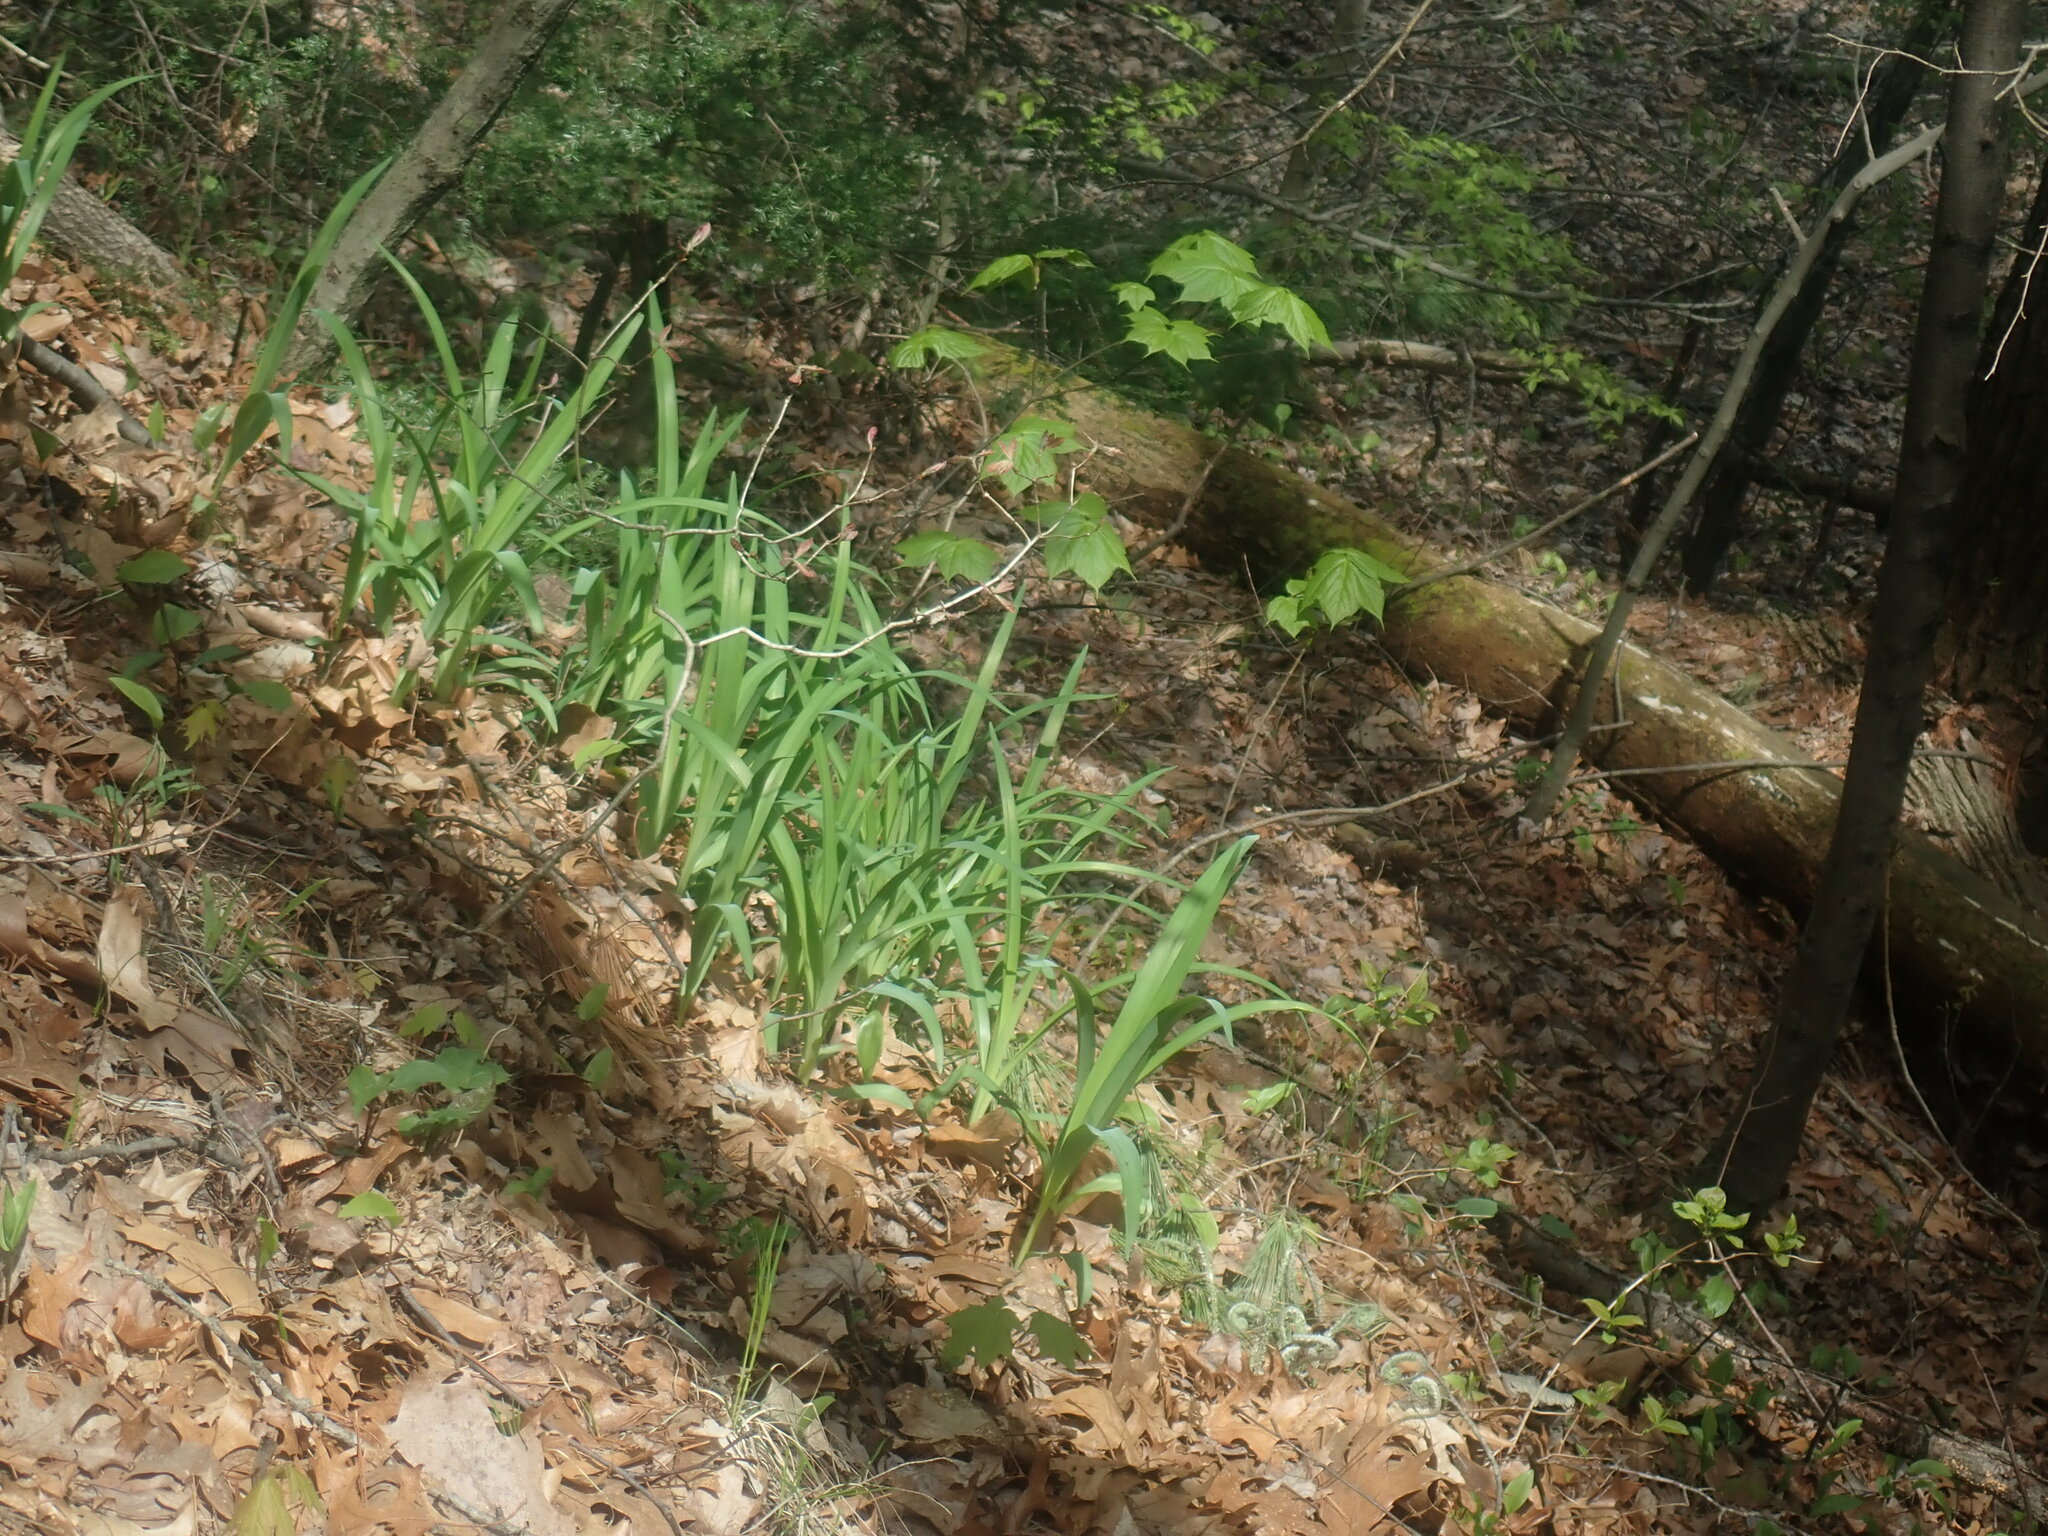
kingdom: Plantae
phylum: Tracheophyta
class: Liliopsida
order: Asparagales
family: Asphodelaceae
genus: Hemerocallis
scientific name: Hemerocallis
